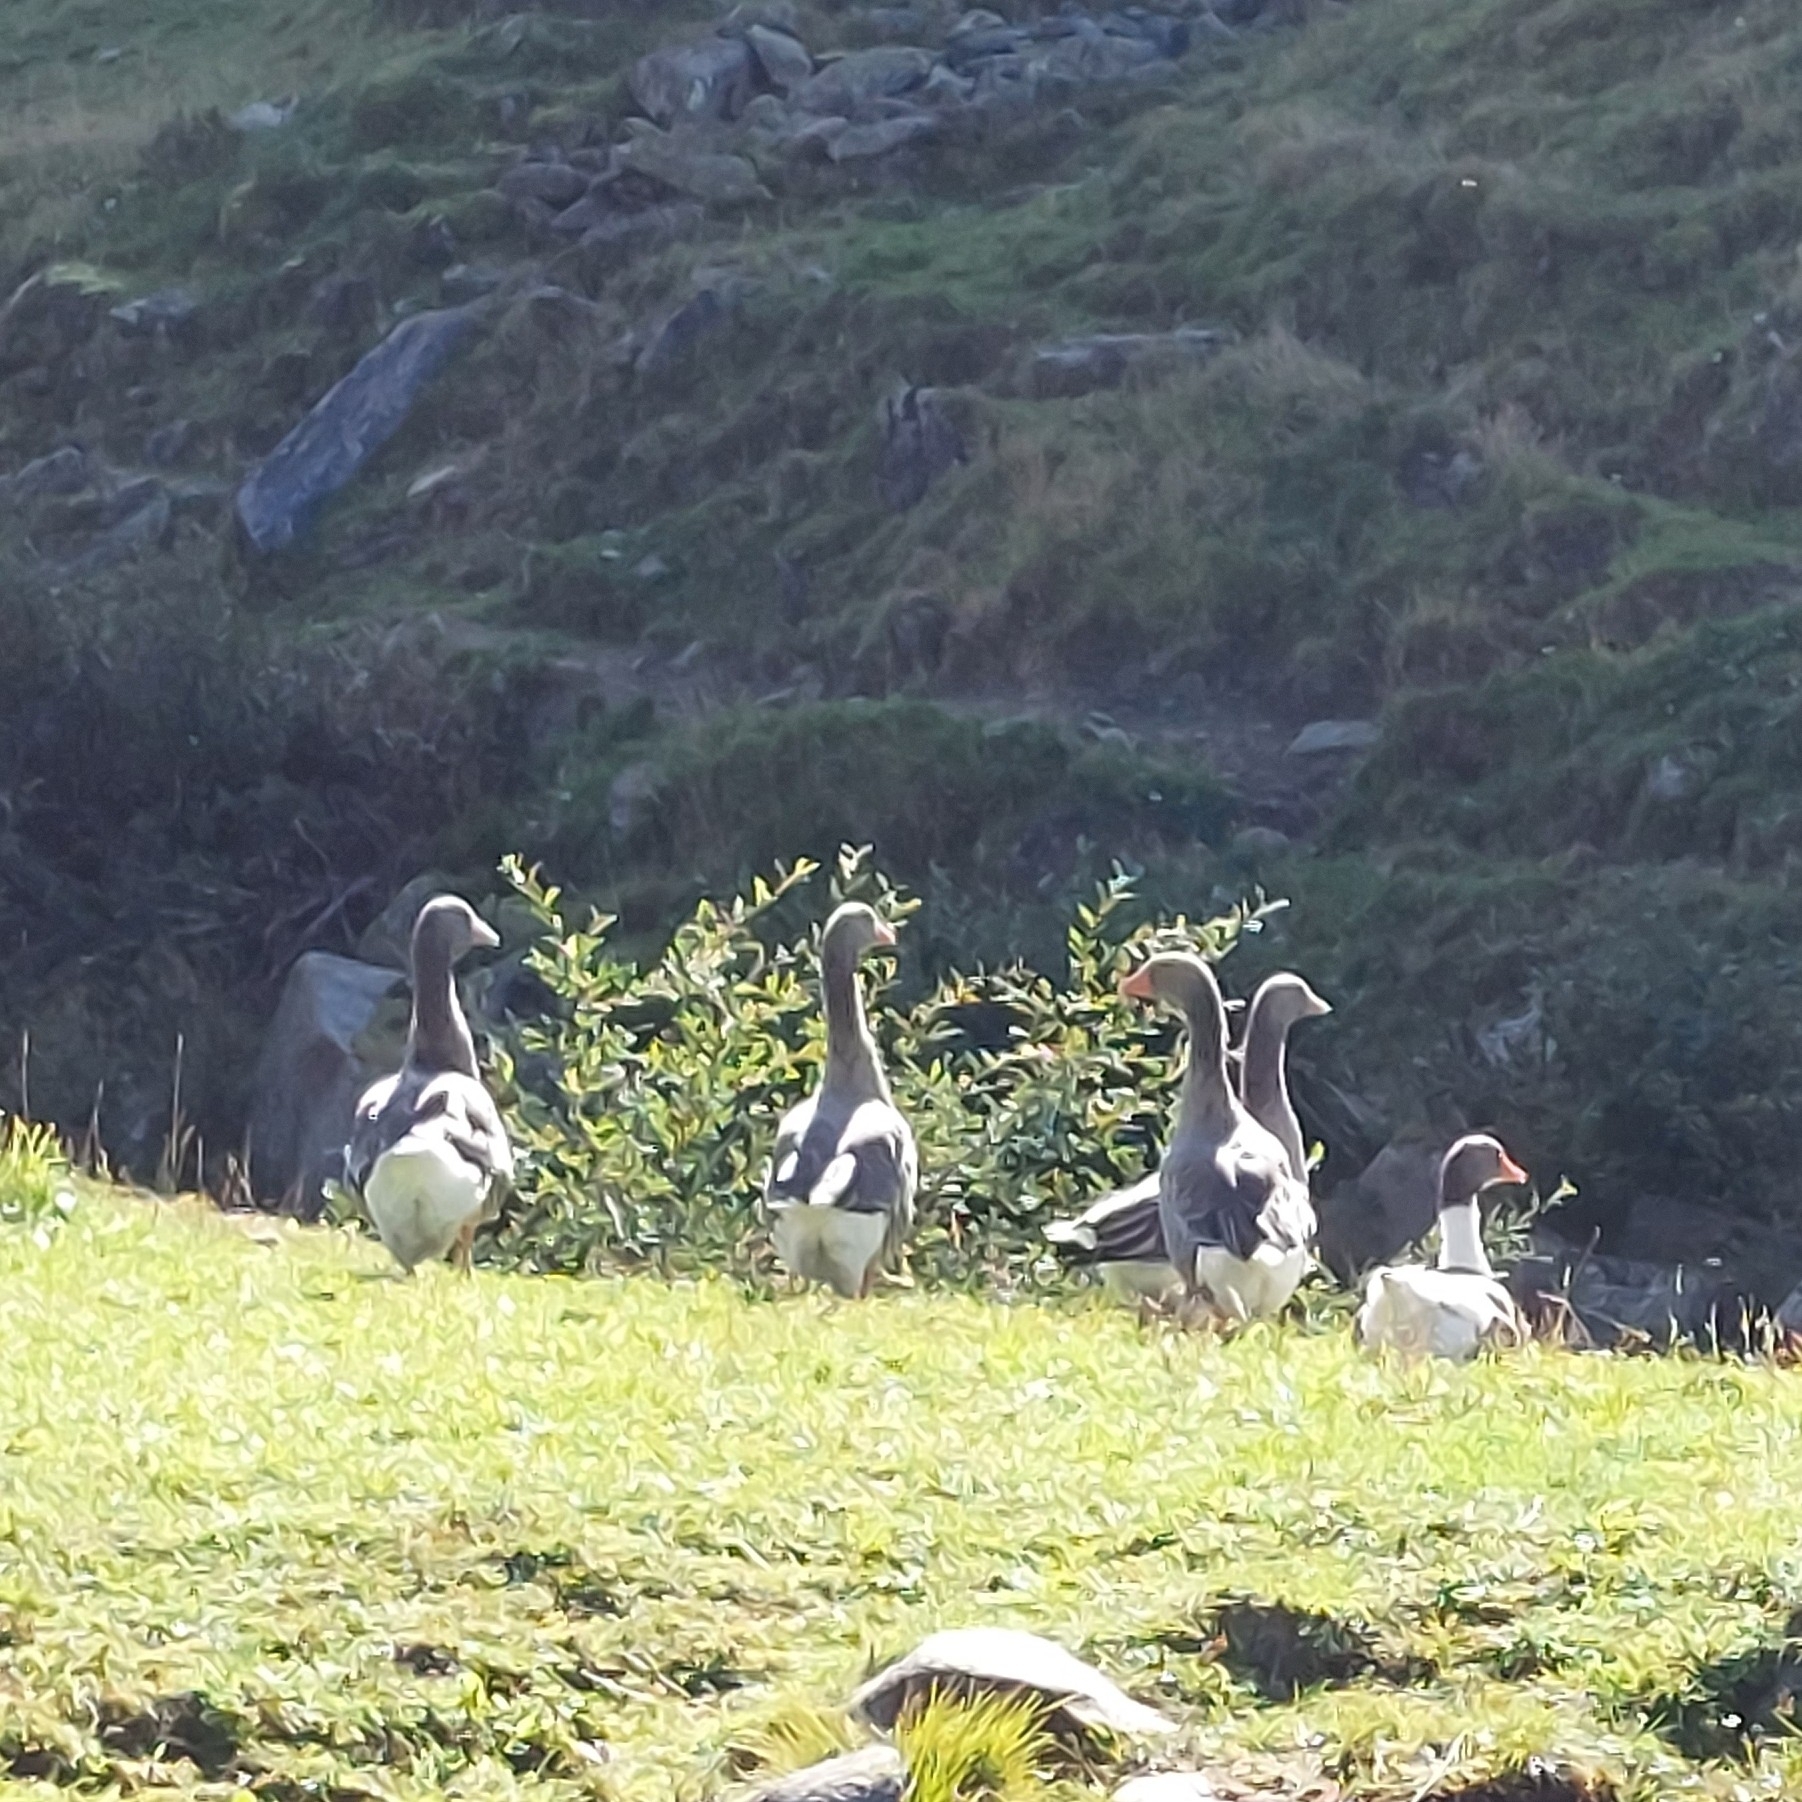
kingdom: Animalia
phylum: Chordata
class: Aves
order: Anseriformes
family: Anatidae
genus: Anser
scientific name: Anser anser
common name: Greylag goose
